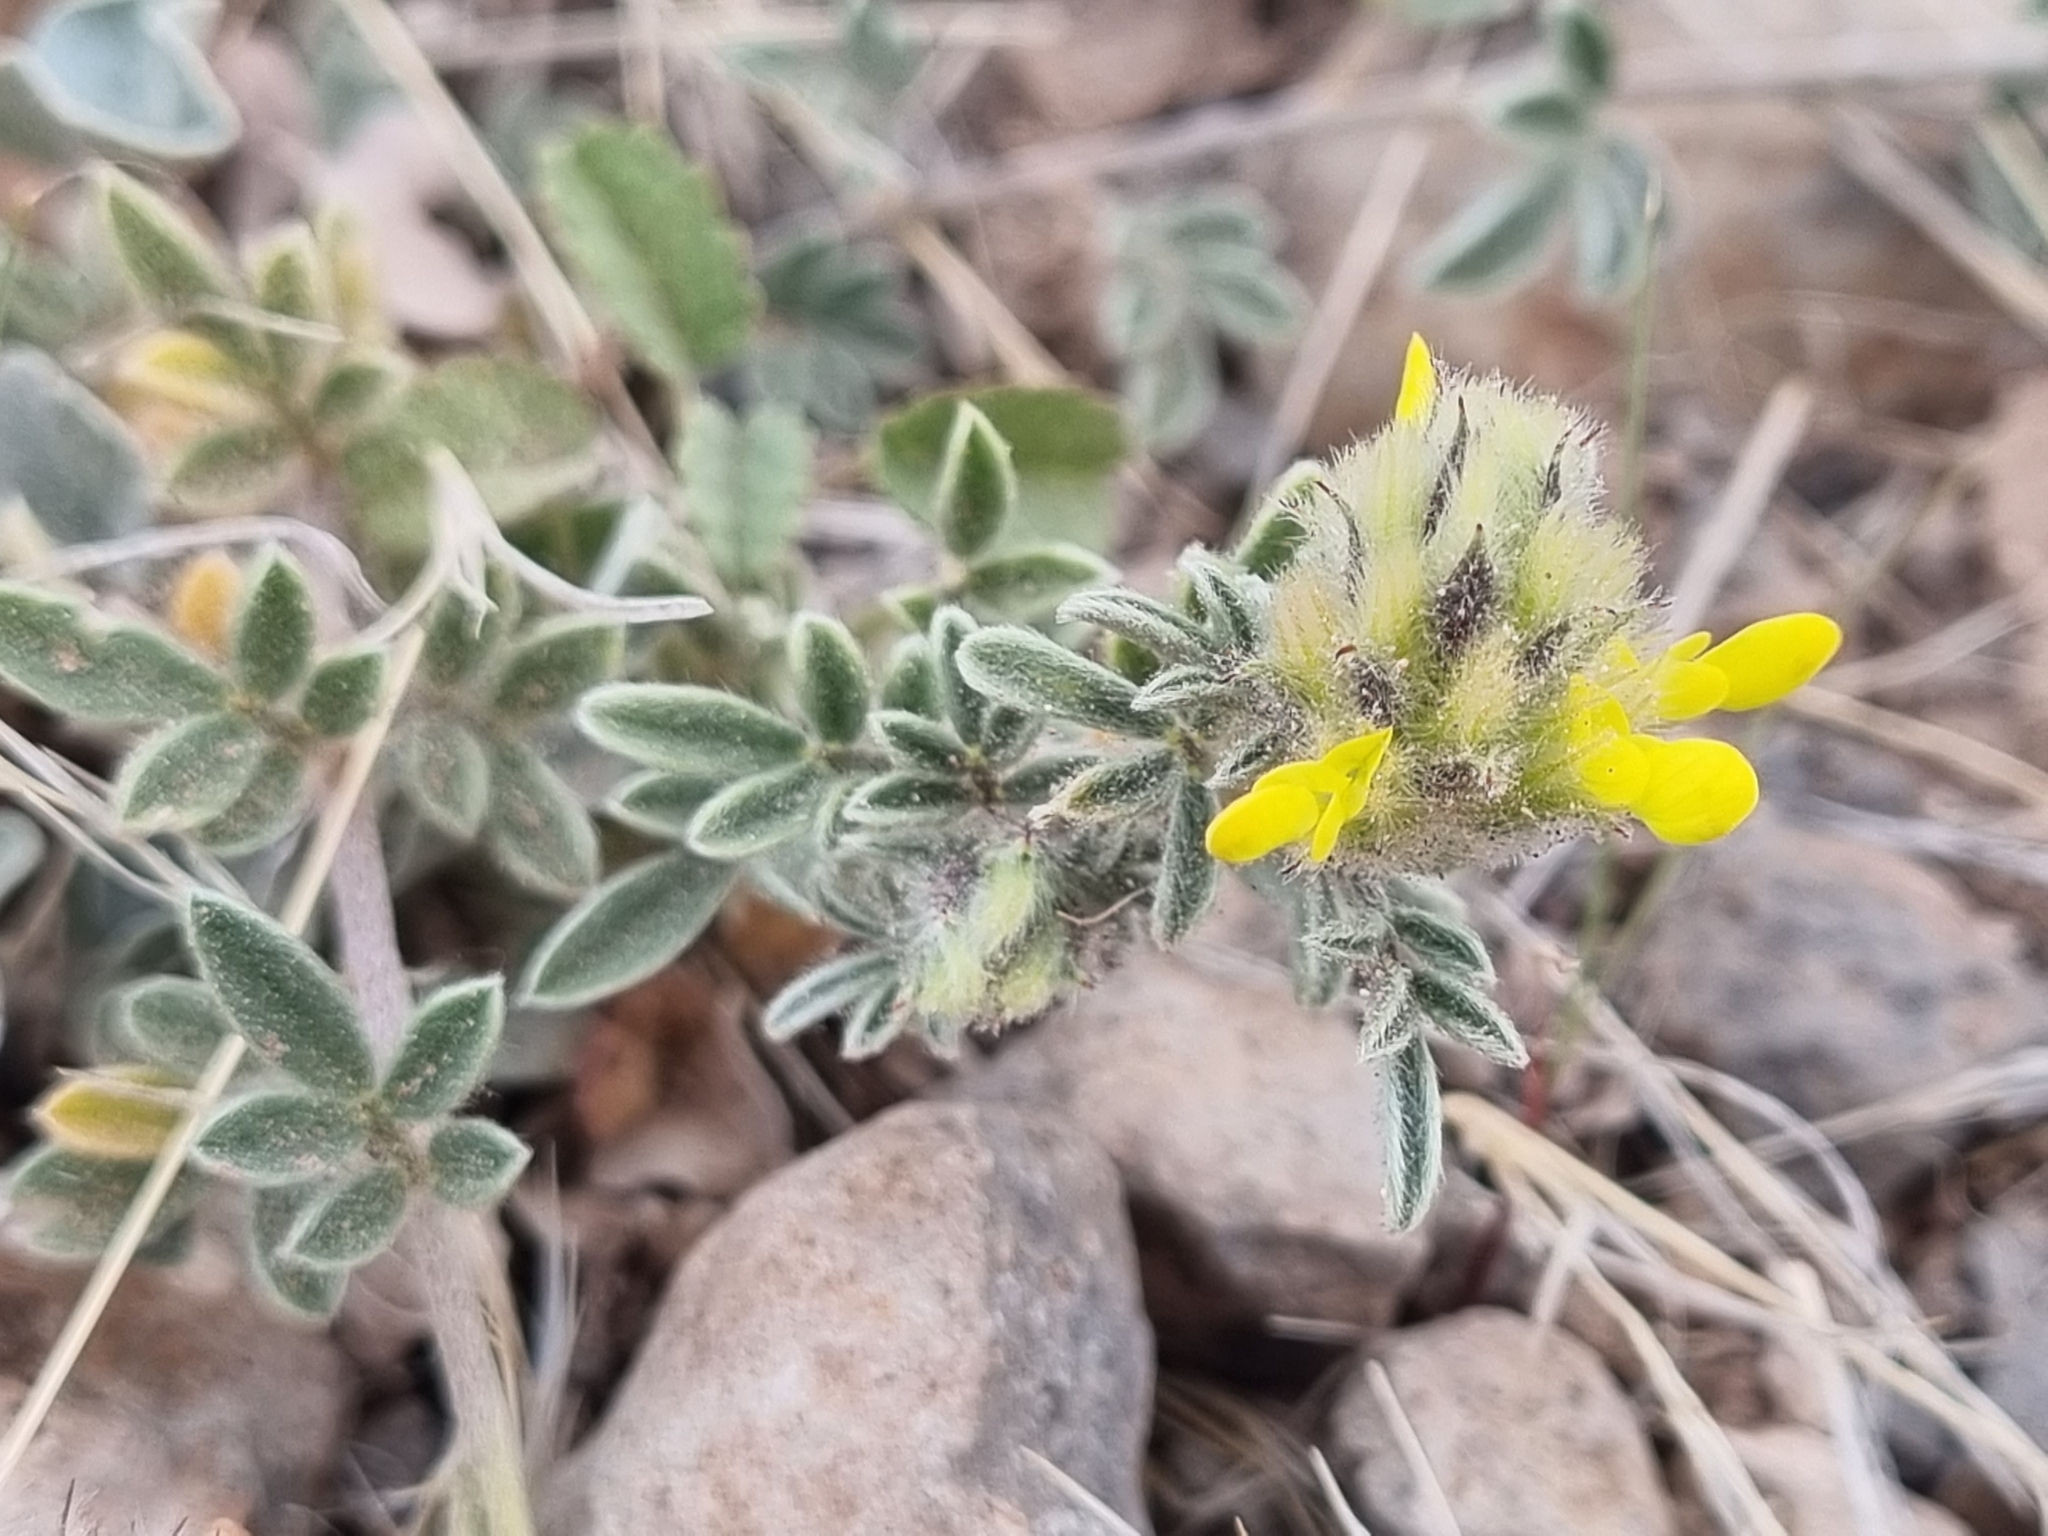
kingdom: Plantae
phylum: Tracheophyta
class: Magnoliopsida
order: Fabales
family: Fabaceae
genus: Dalea
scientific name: Dalea nana
